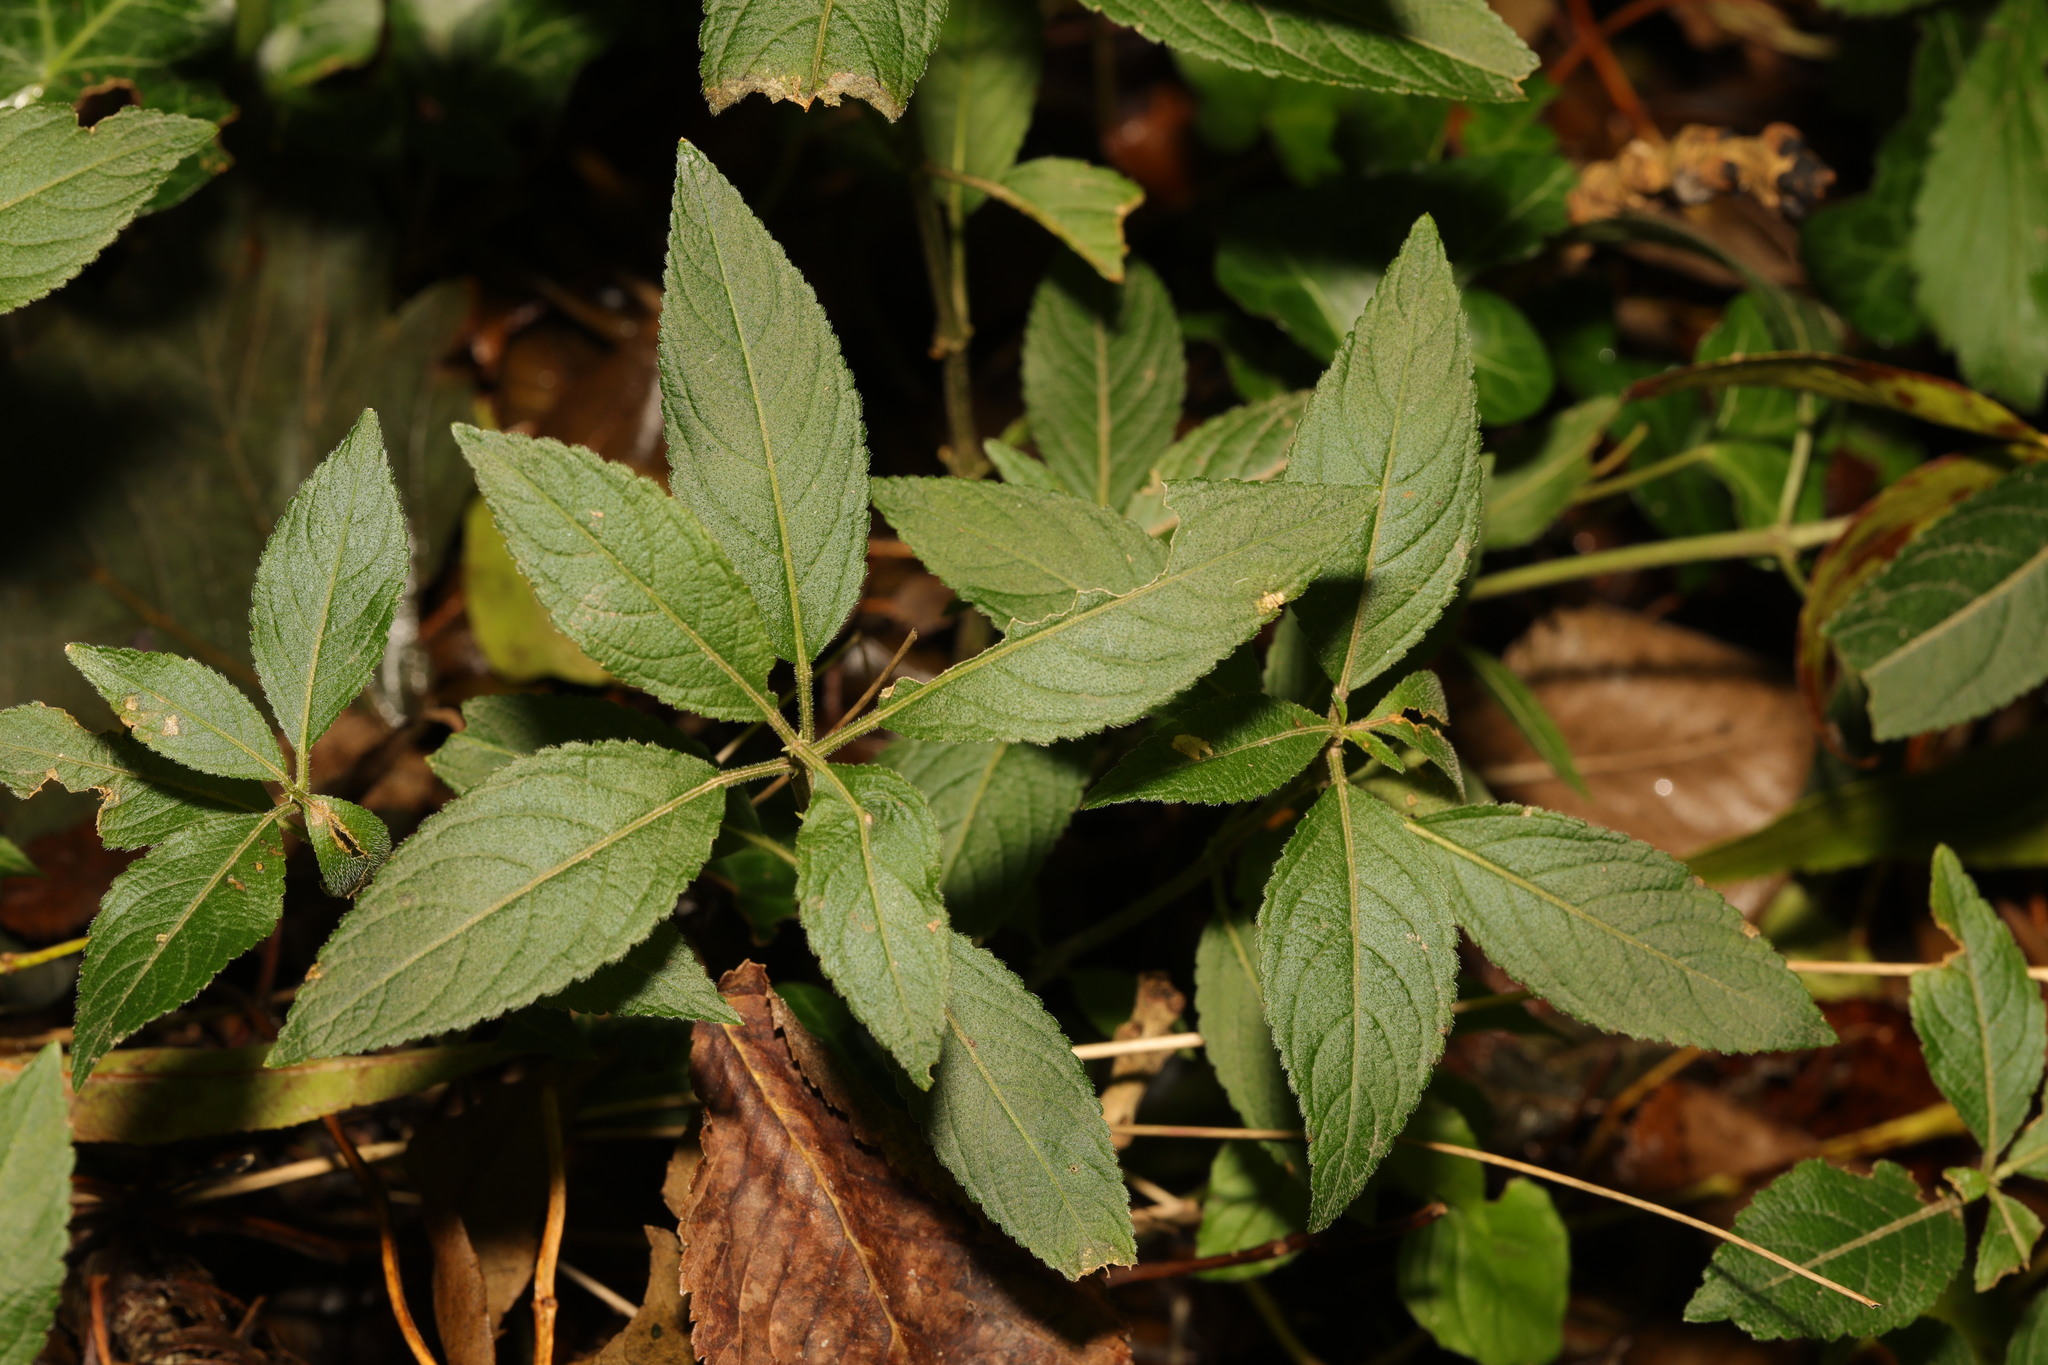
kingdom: Plantae
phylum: Tracheophyta
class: Magnoliopsida
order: Malpighiales
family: Euphorbiaceae
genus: Mercurialis
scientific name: Mercurialis perennis
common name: Dog mercury
